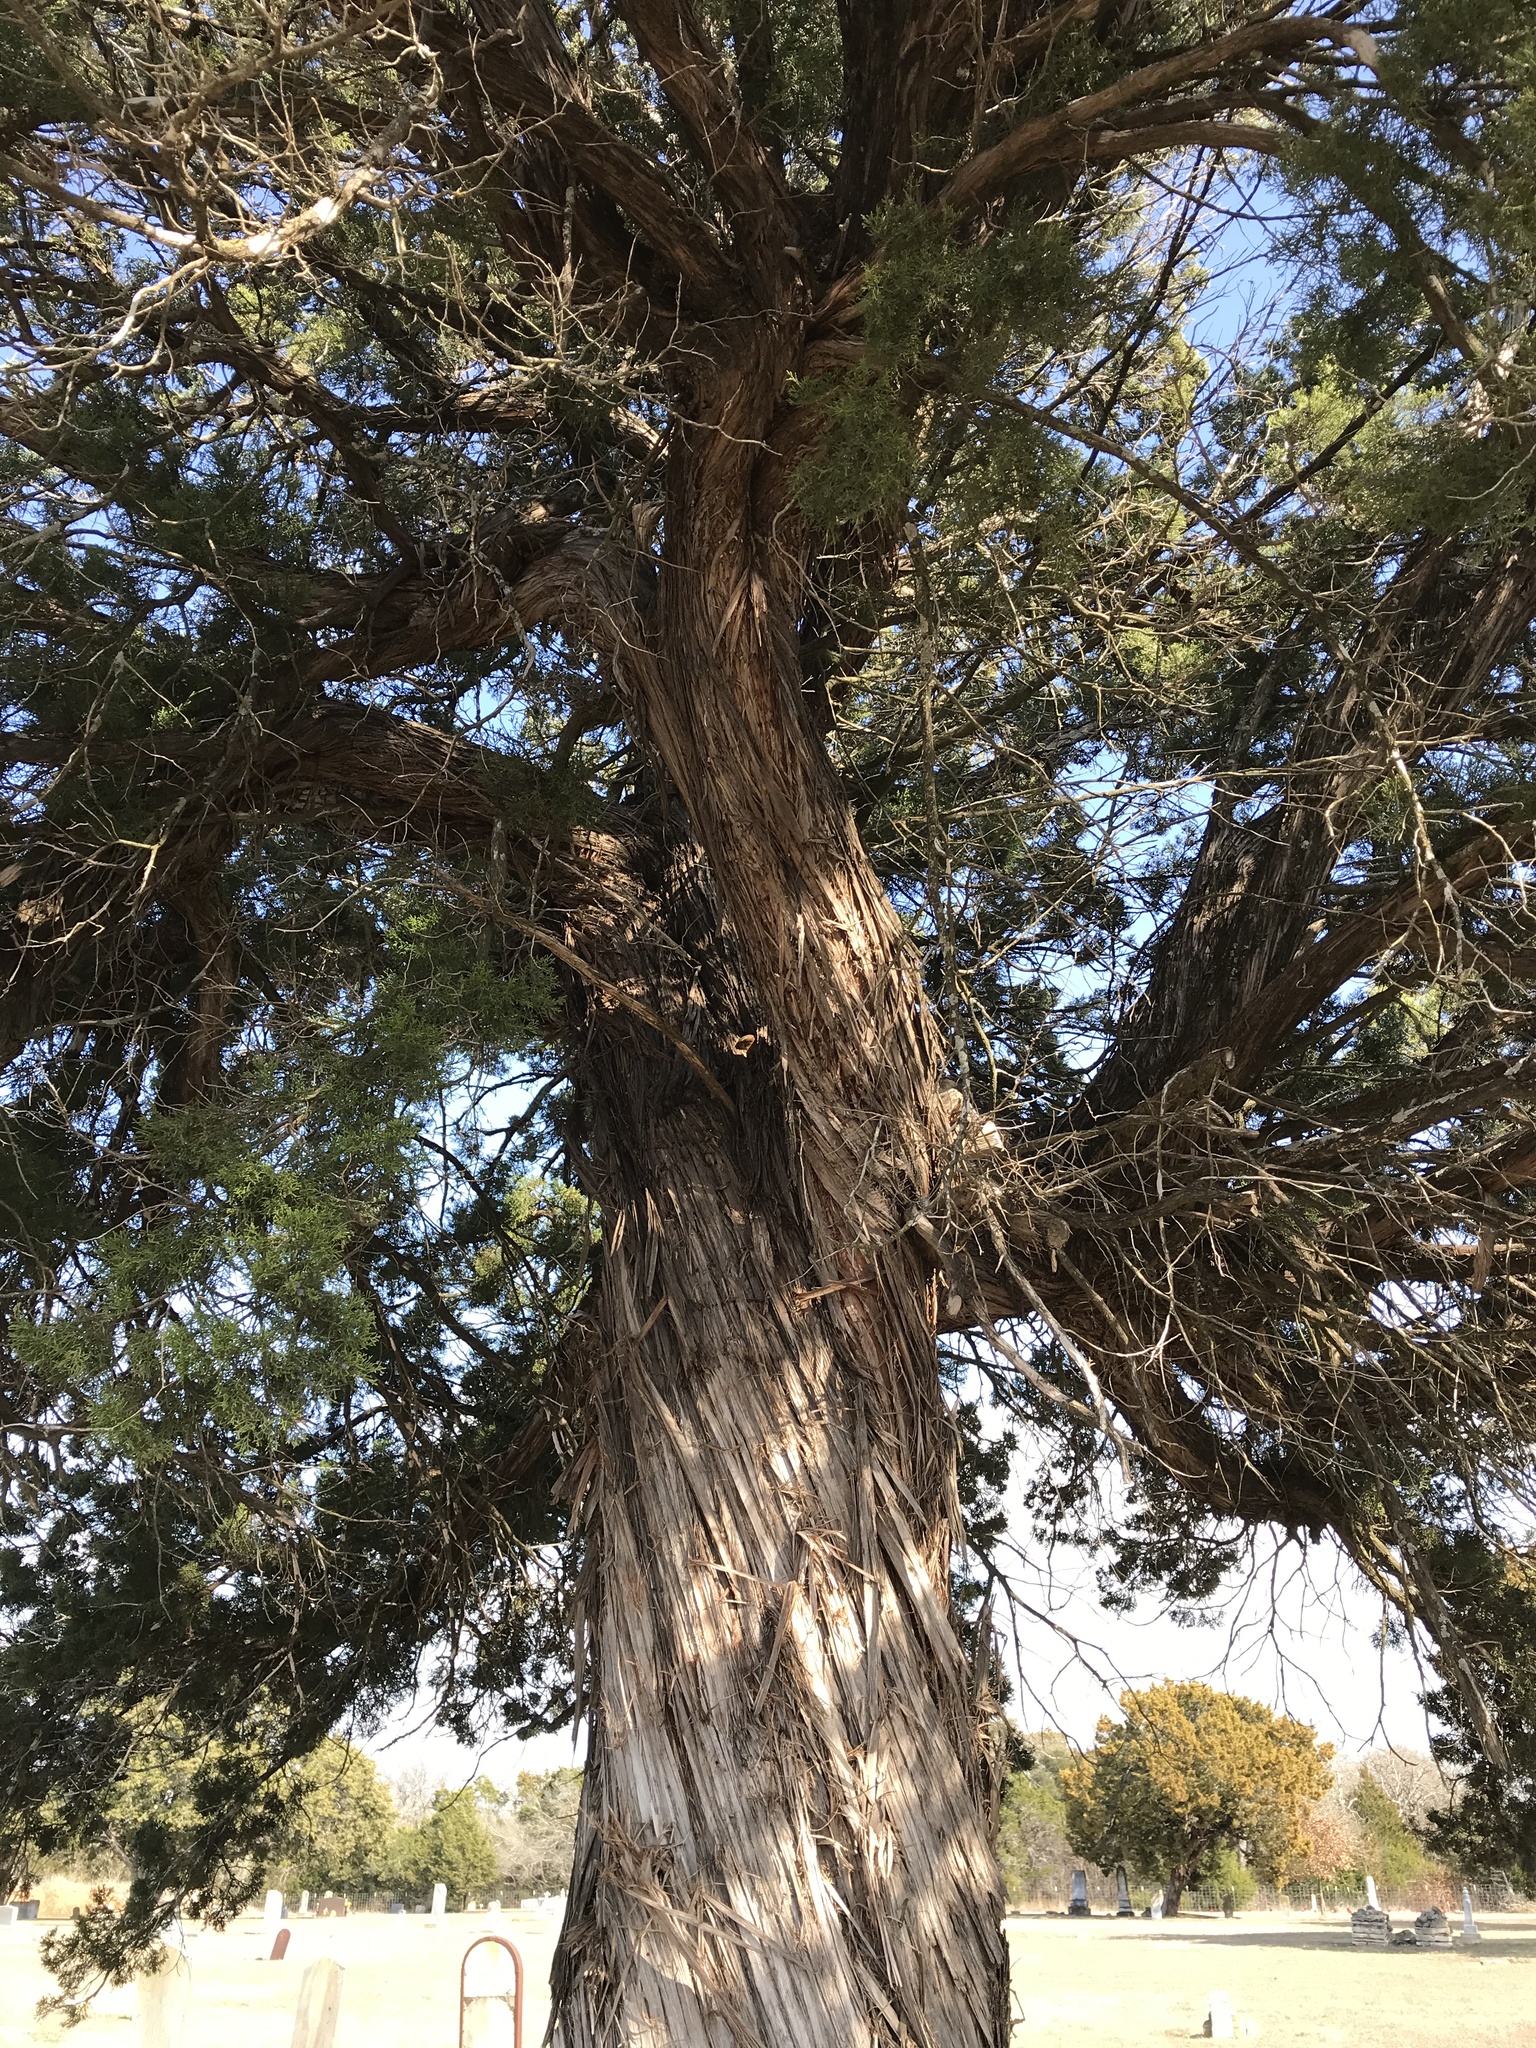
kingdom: Plantae
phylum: Tracheophyta
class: Pinopsida
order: Pinales
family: Cupressaceae
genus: Juniperus
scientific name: Juniperus ashei
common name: Mexican juniper
